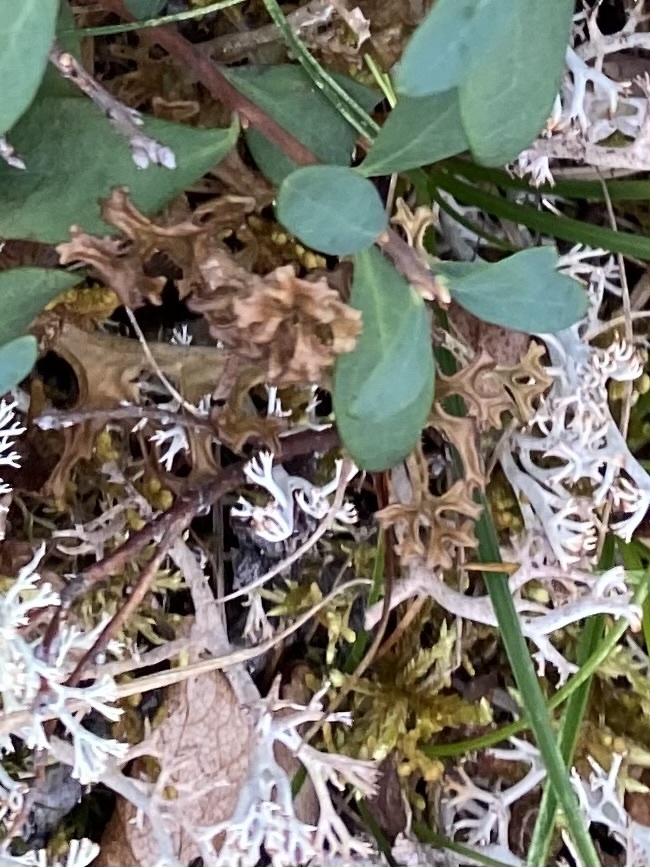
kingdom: Fungi
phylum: Ascomycota
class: Lecanoromycetes
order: Lecanorales
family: Parmeliaceae
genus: Cetraria
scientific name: Cetraria islandica
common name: Iceland lichen
